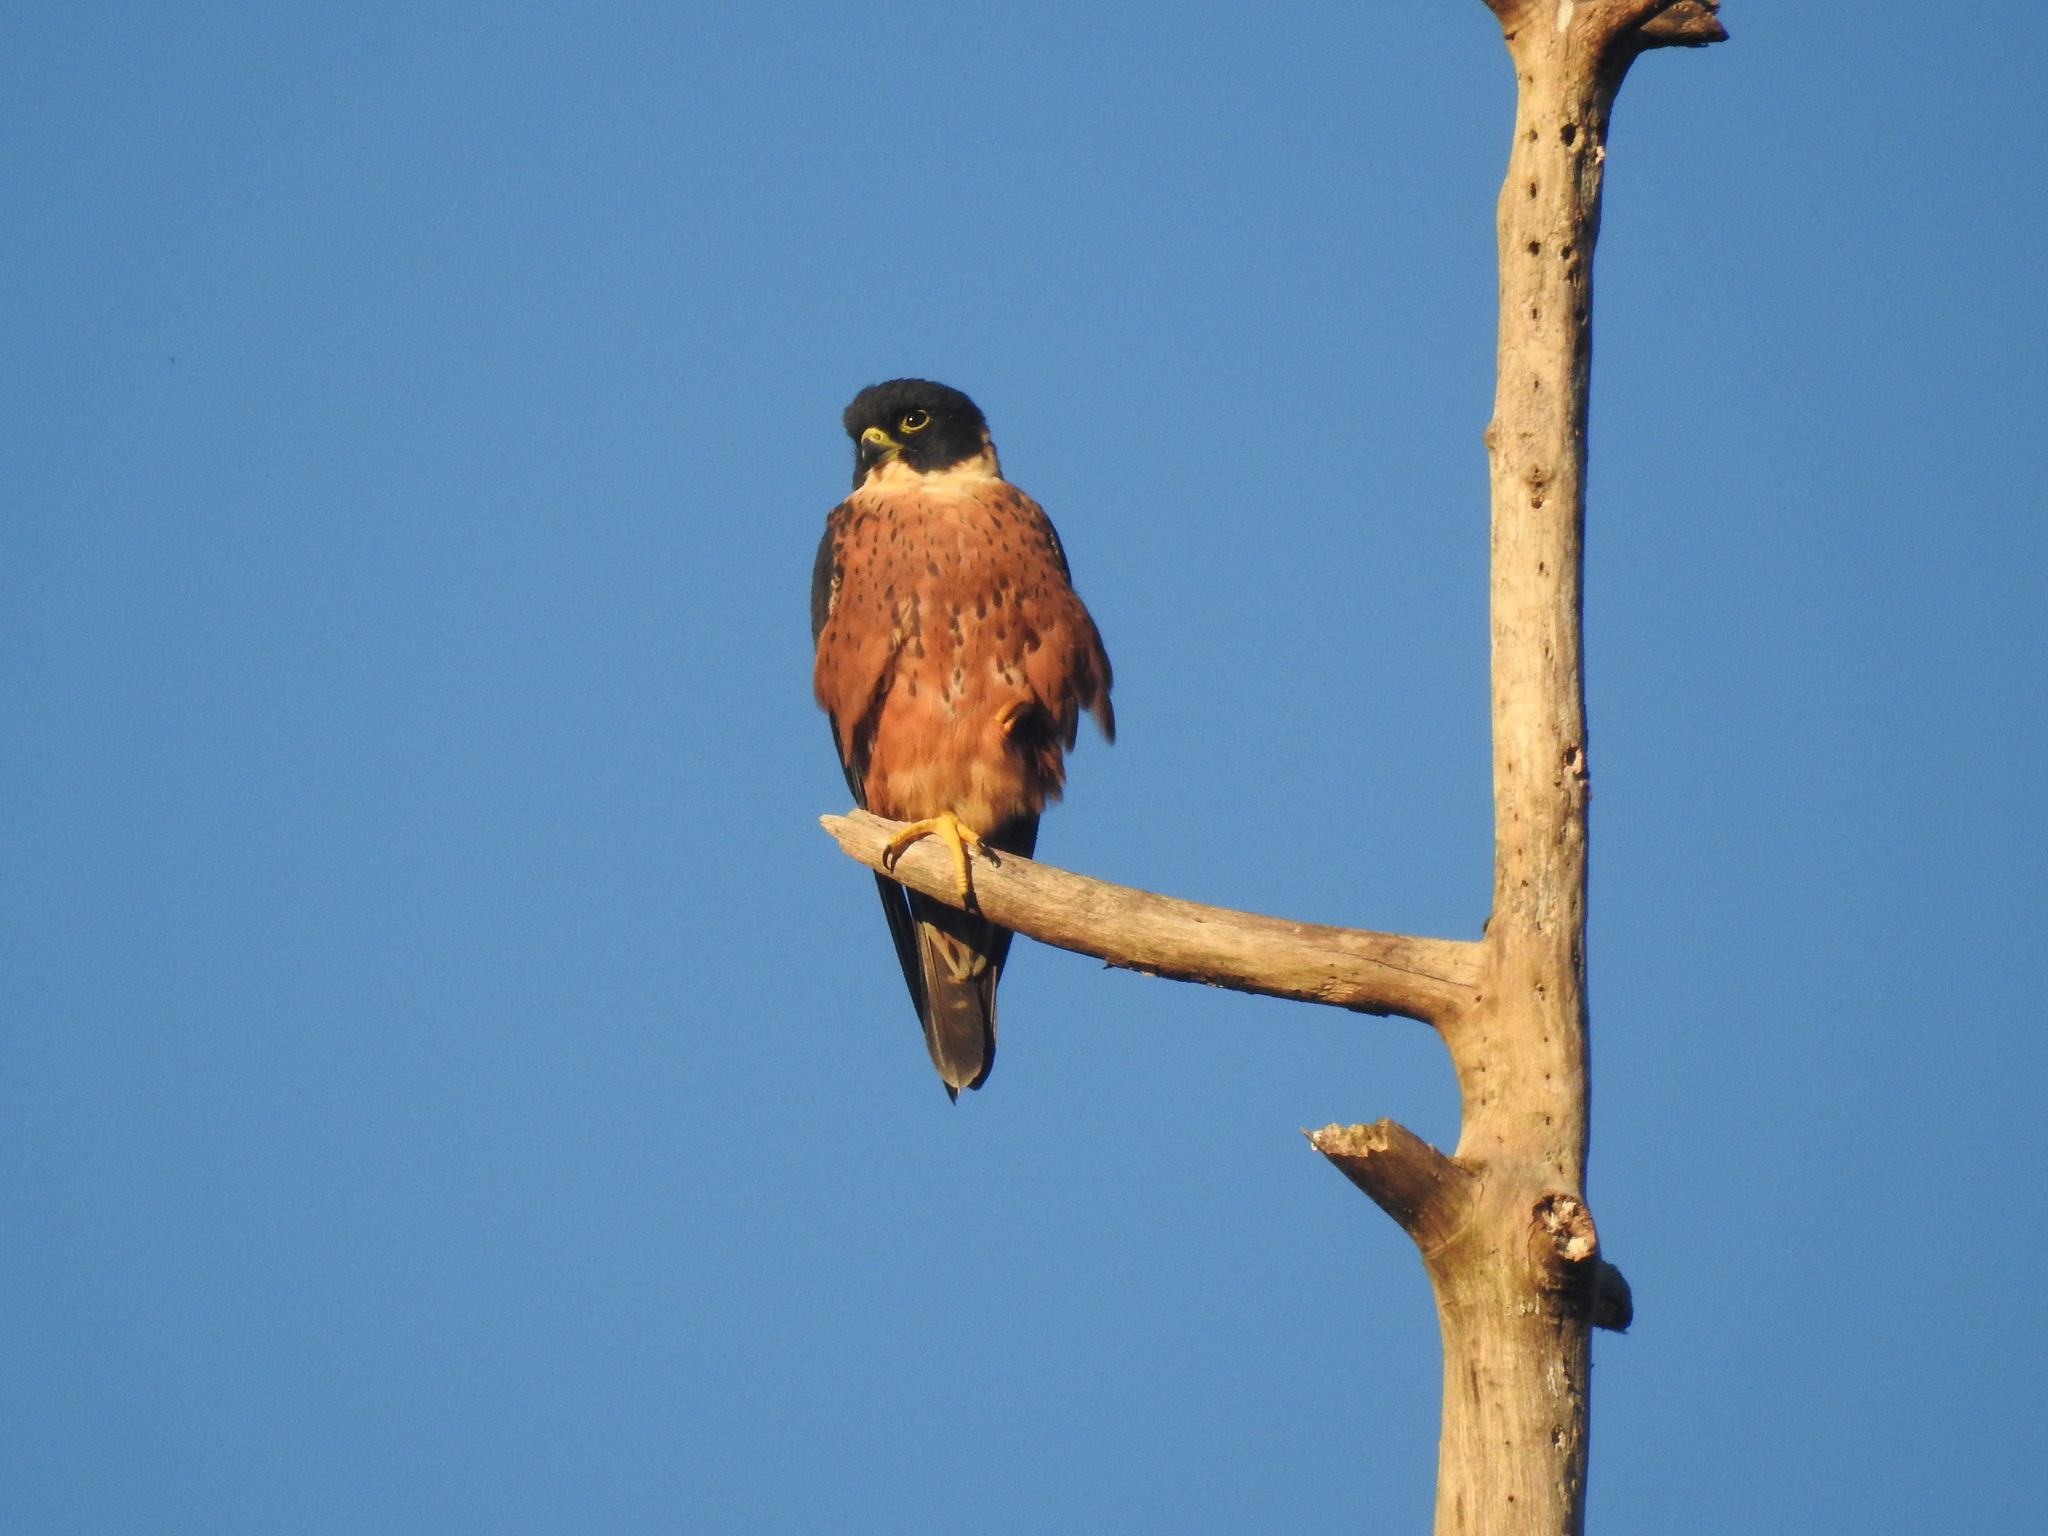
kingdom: Animalia
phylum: Chordata
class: Aves
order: Falconiformes
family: Falconidae
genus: Falco
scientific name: Falco severus
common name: Oriental hobby
